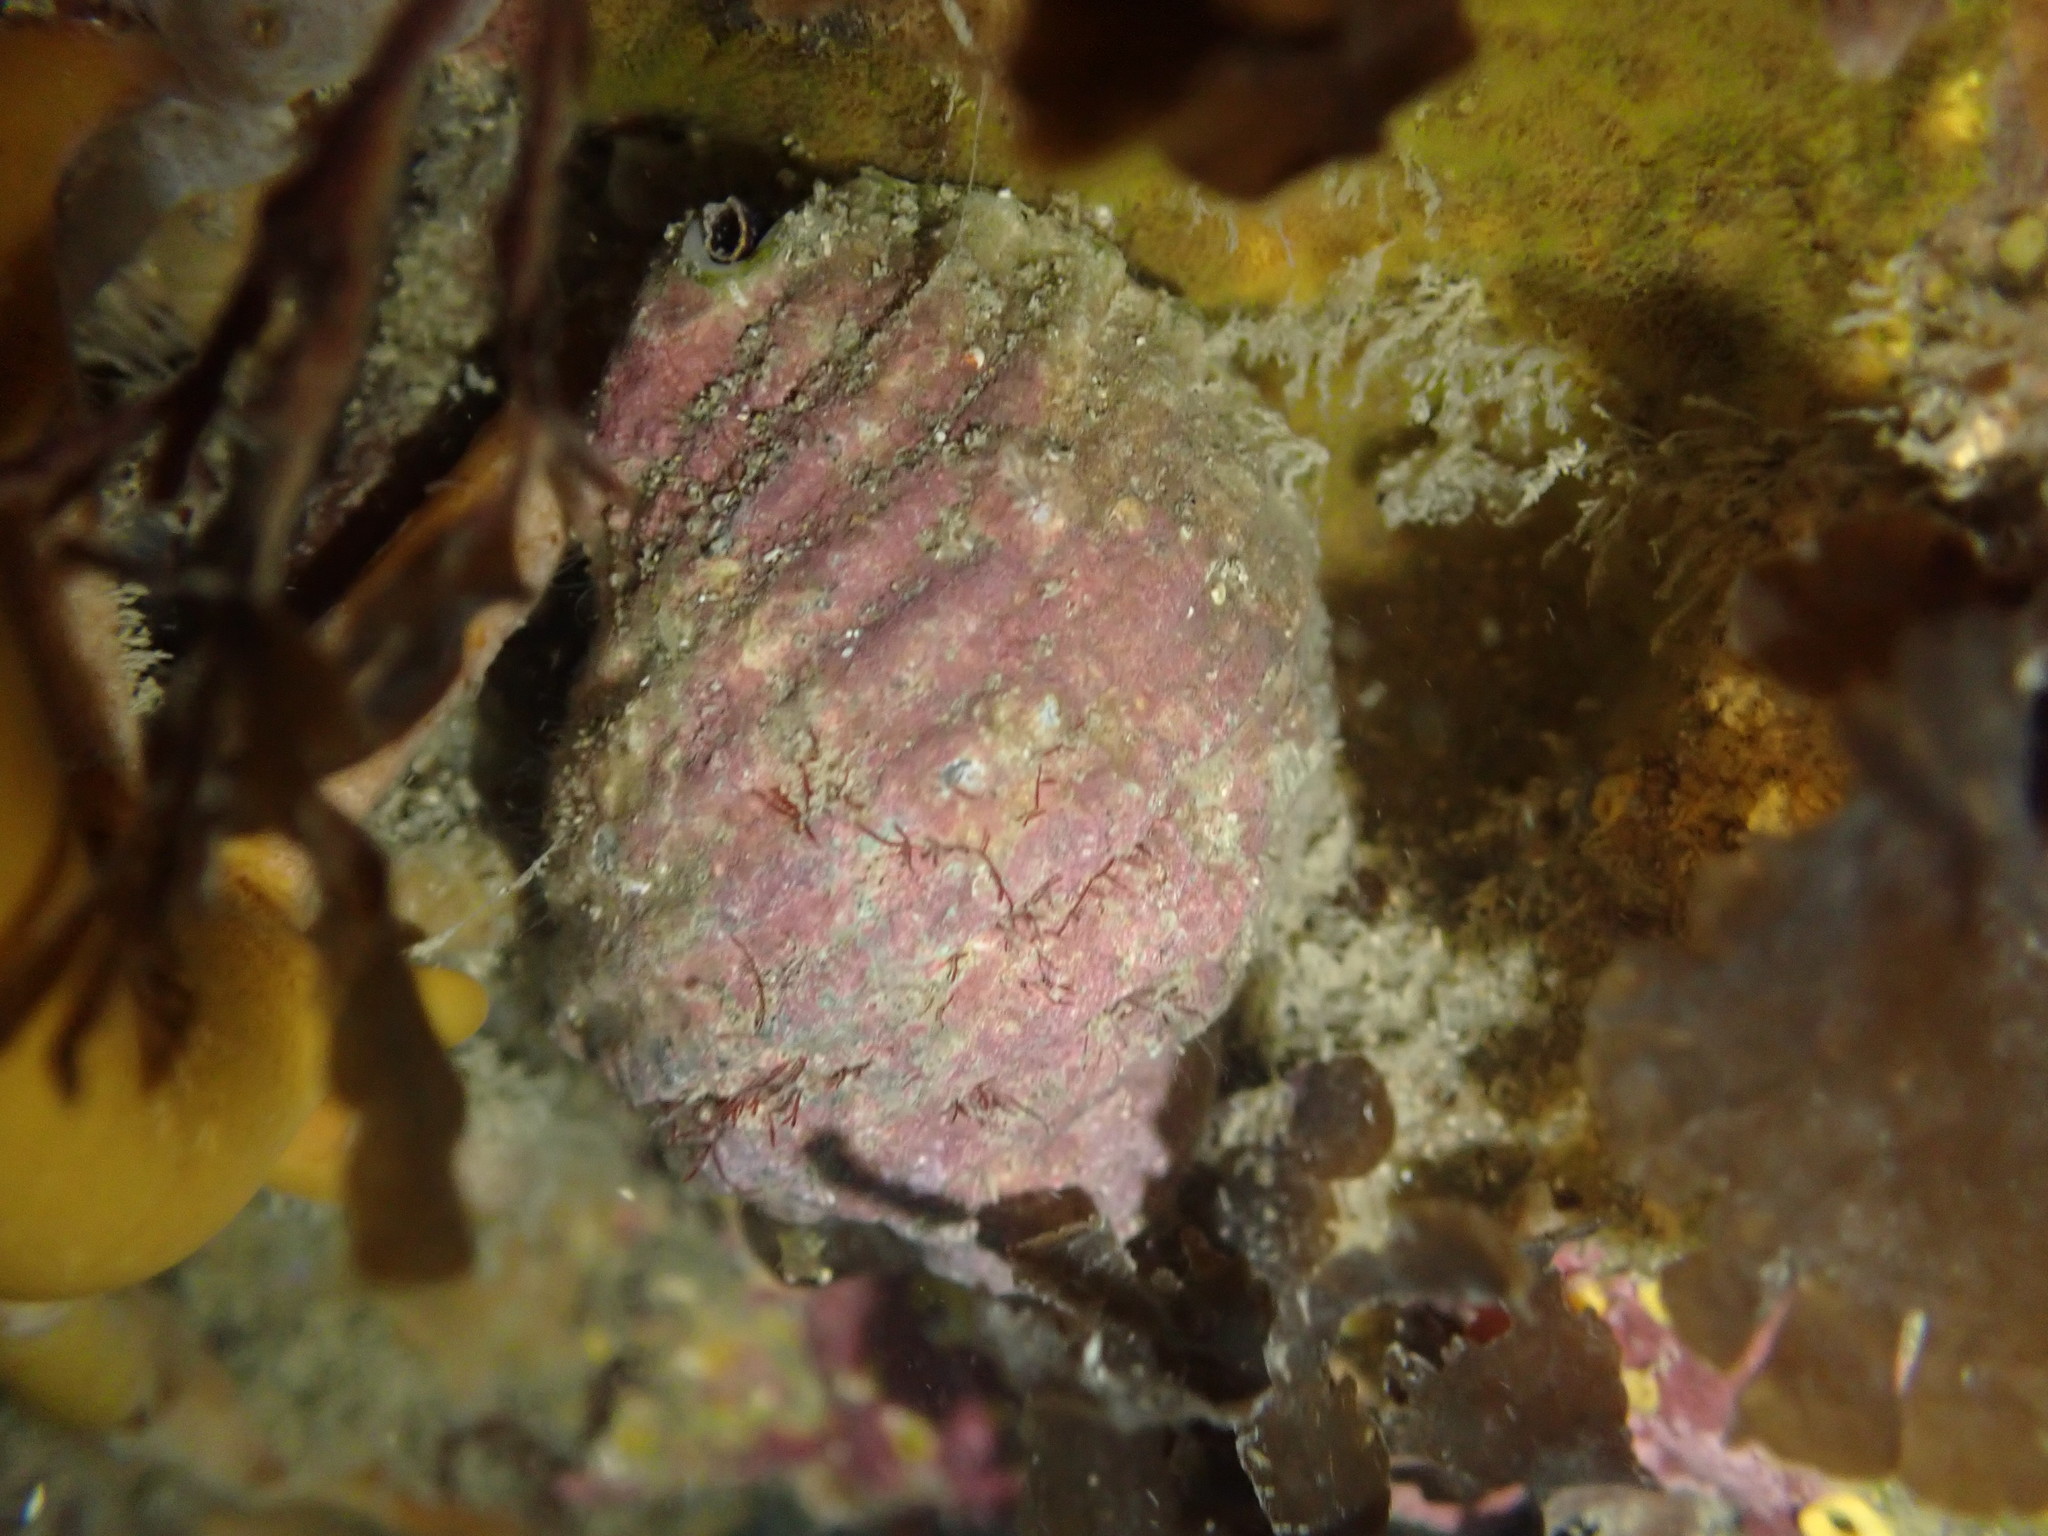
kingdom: Animalia
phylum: Mollusca
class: Gastropoda
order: Neogastropoda
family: Muricidae
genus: Dicathais
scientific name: Dicathais orbita
